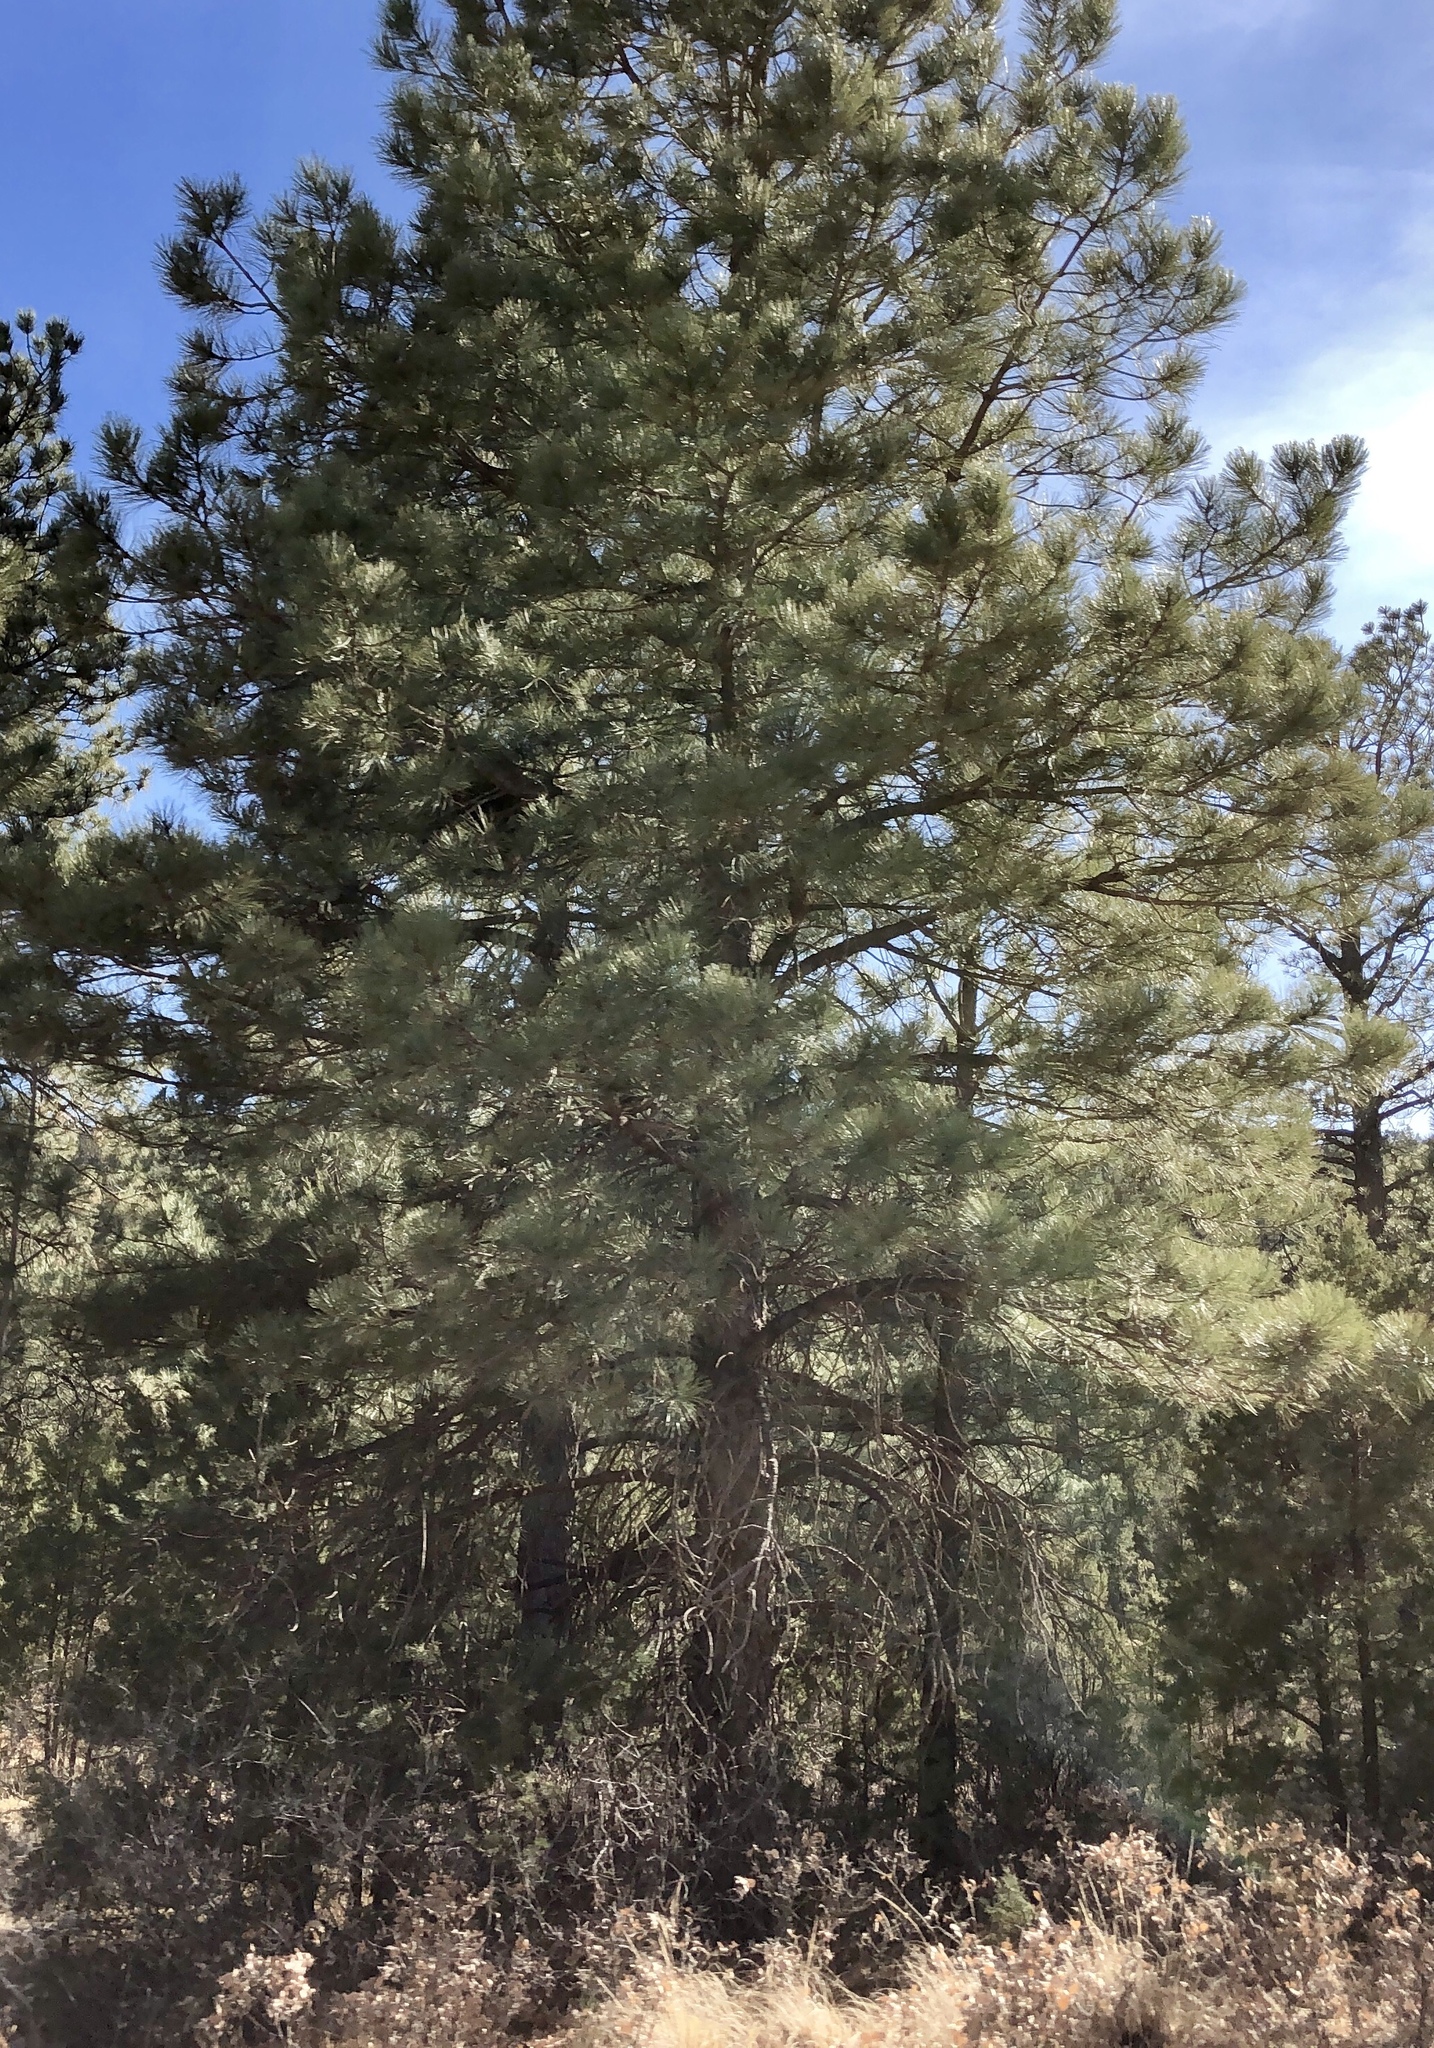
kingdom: Plantae
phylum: Tracheophyta
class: Pinopsida
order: Pinales
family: Pinaceae
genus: Pinus
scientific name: Pinus ponderosa
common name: Western yellow-pine
